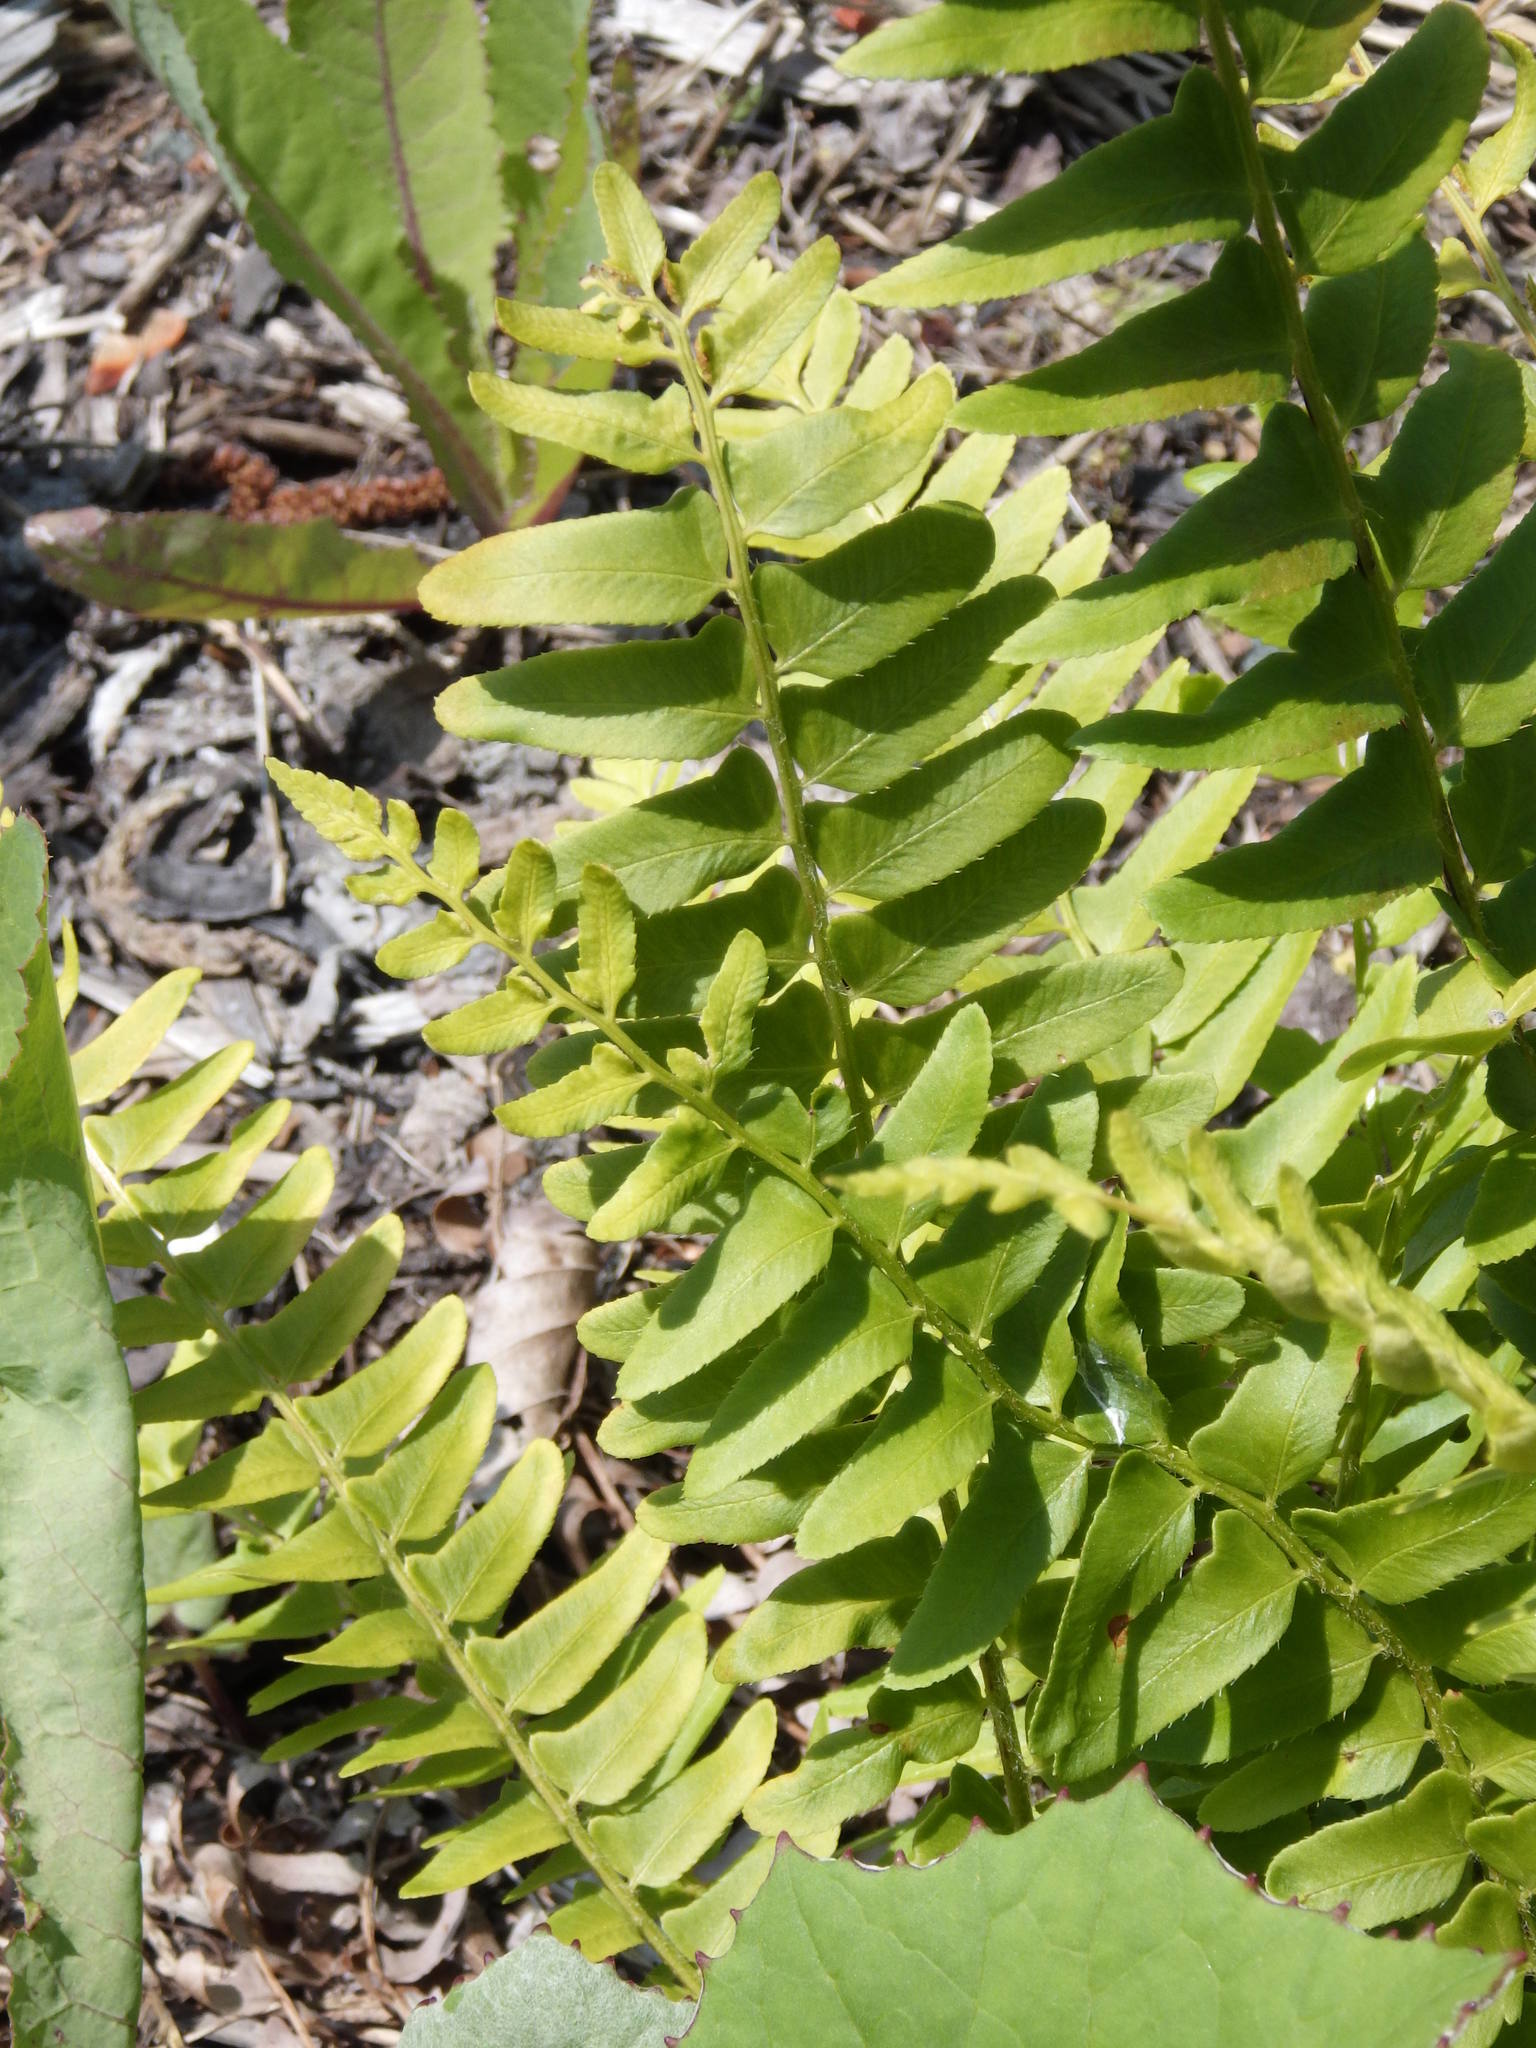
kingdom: Plantae
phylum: Tracheophyta
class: Polypodiopsida
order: Polypodiales
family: Dryopteridaceae
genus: Polystichum
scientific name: Polystichum acrostichoides
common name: Christmas fern
